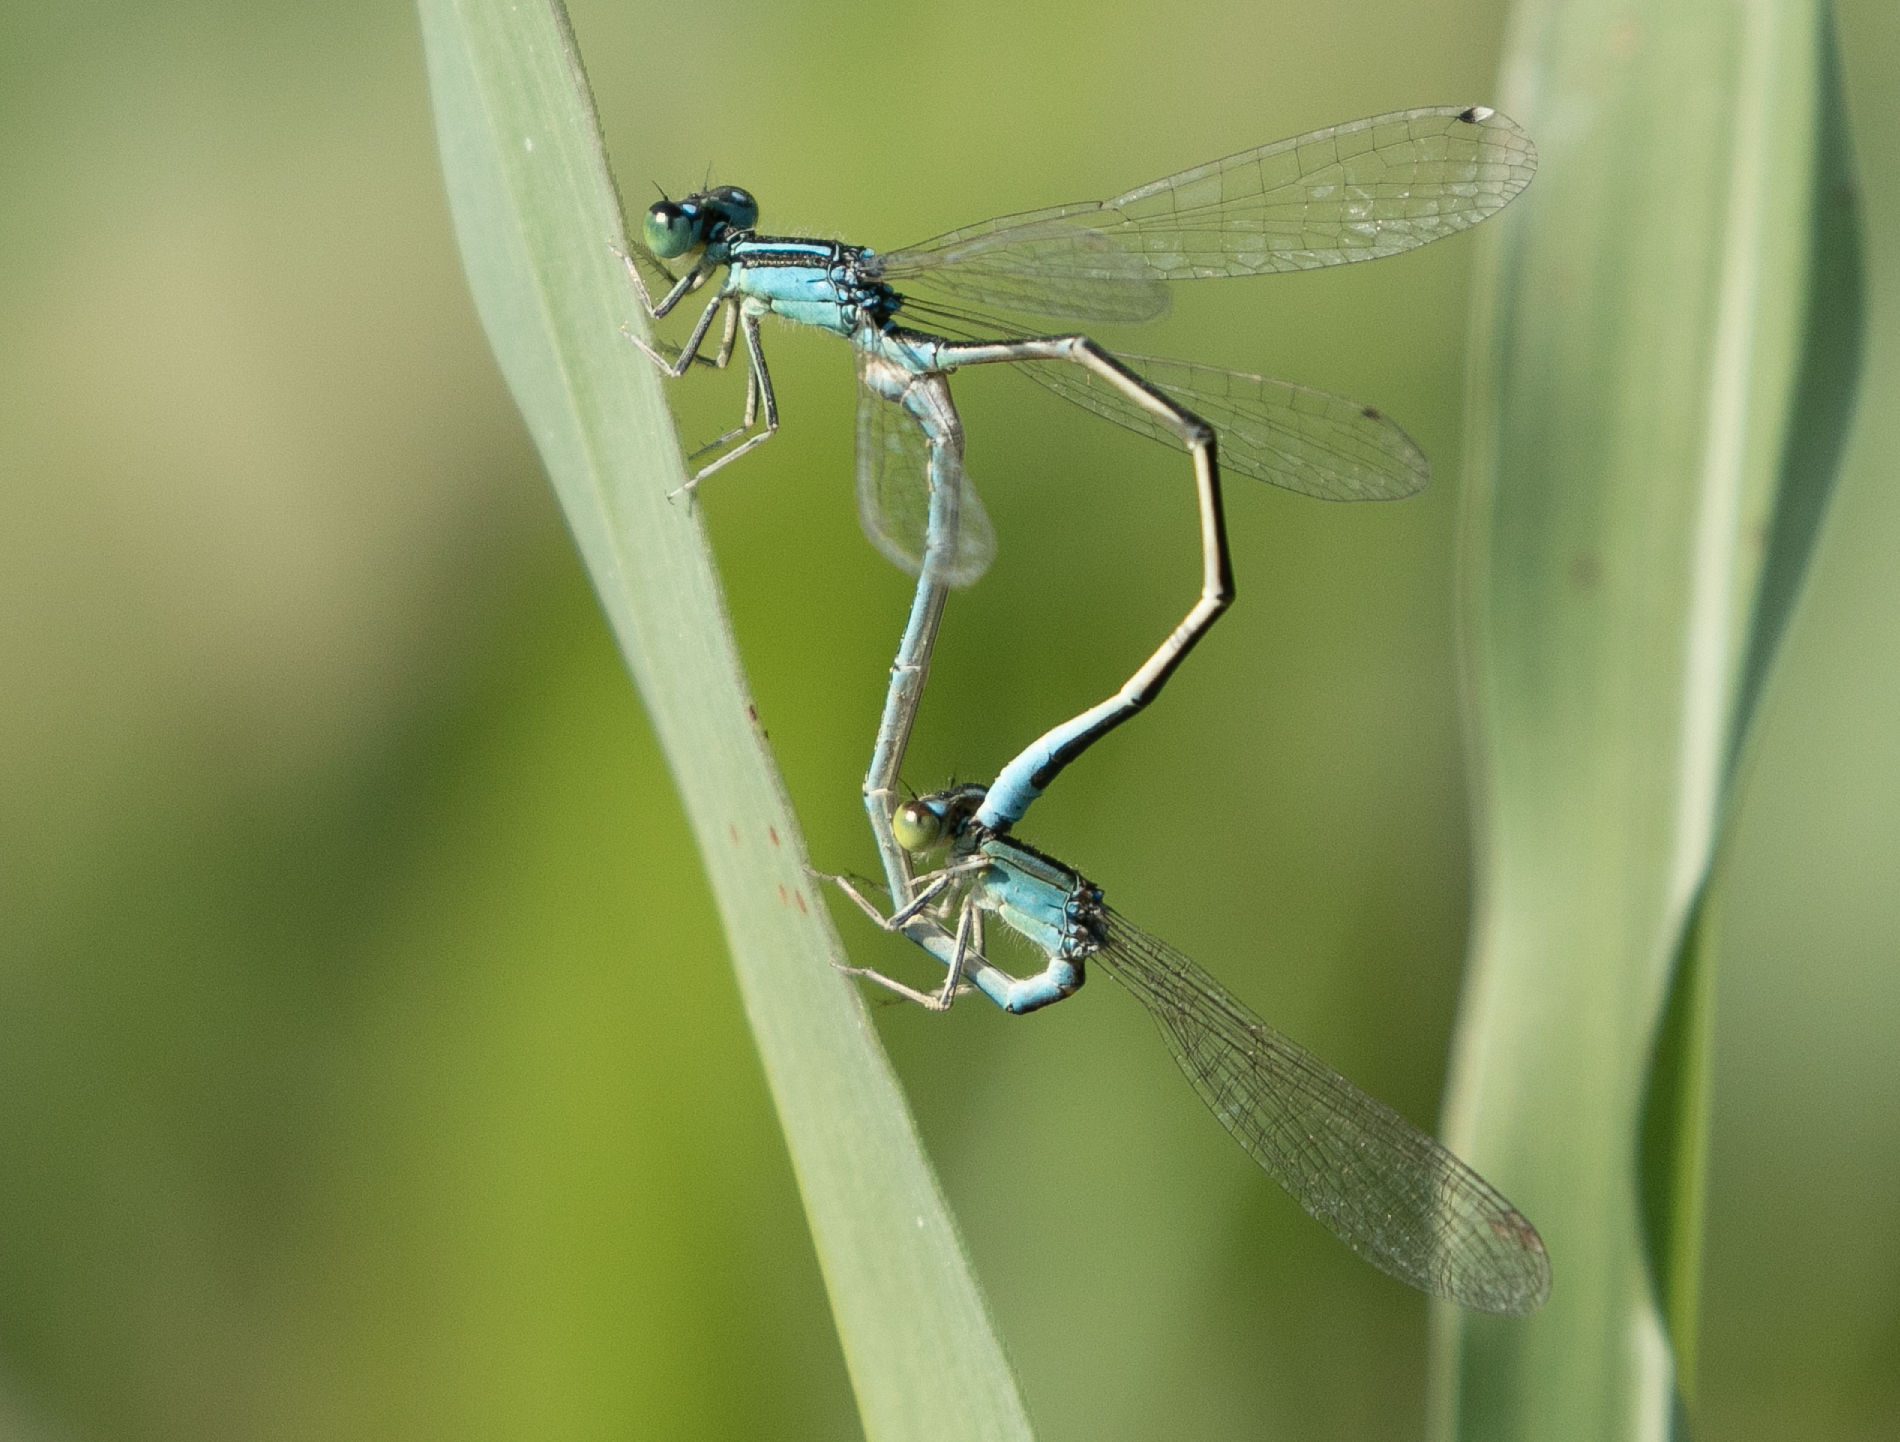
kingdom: Animalia
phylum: Arthropoda
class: Insecta
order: Odonata
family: Coenagrionidae
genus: Ischnura
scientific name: Ischnura pumilio
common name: Scarce blue-tailed damselfly
